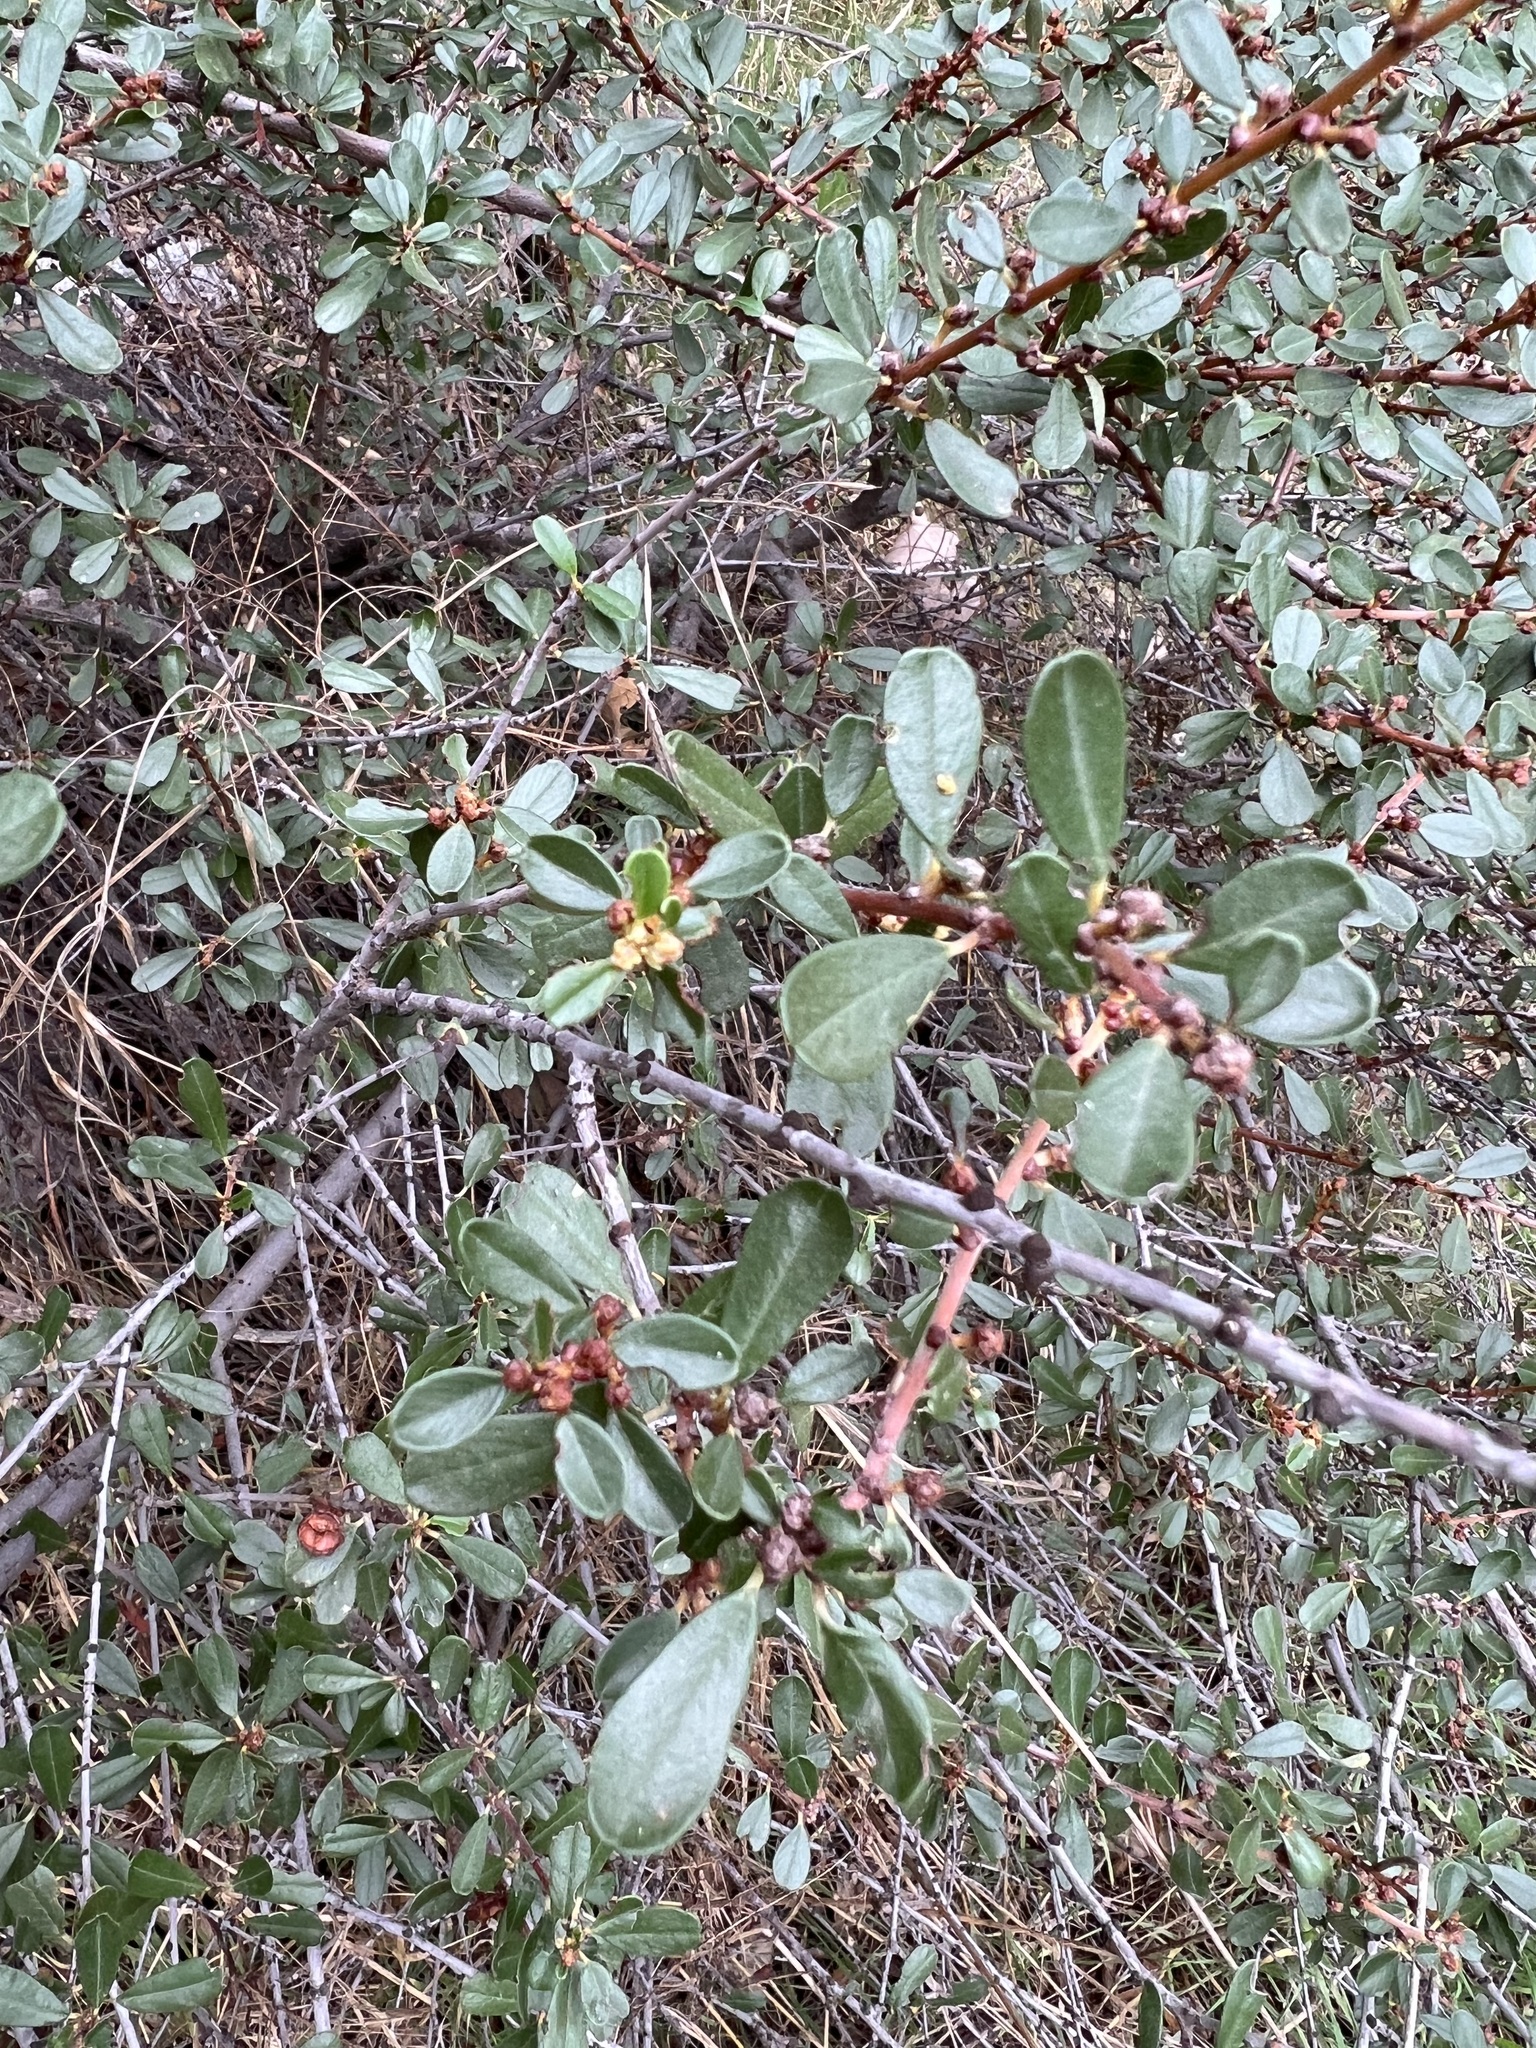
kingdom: Plantae
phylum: Tracheophyta
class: Magnoliopsida
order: Rosales
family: Rhamnaceae
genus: Ceanothus
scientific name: Ceanothus megacarpus
